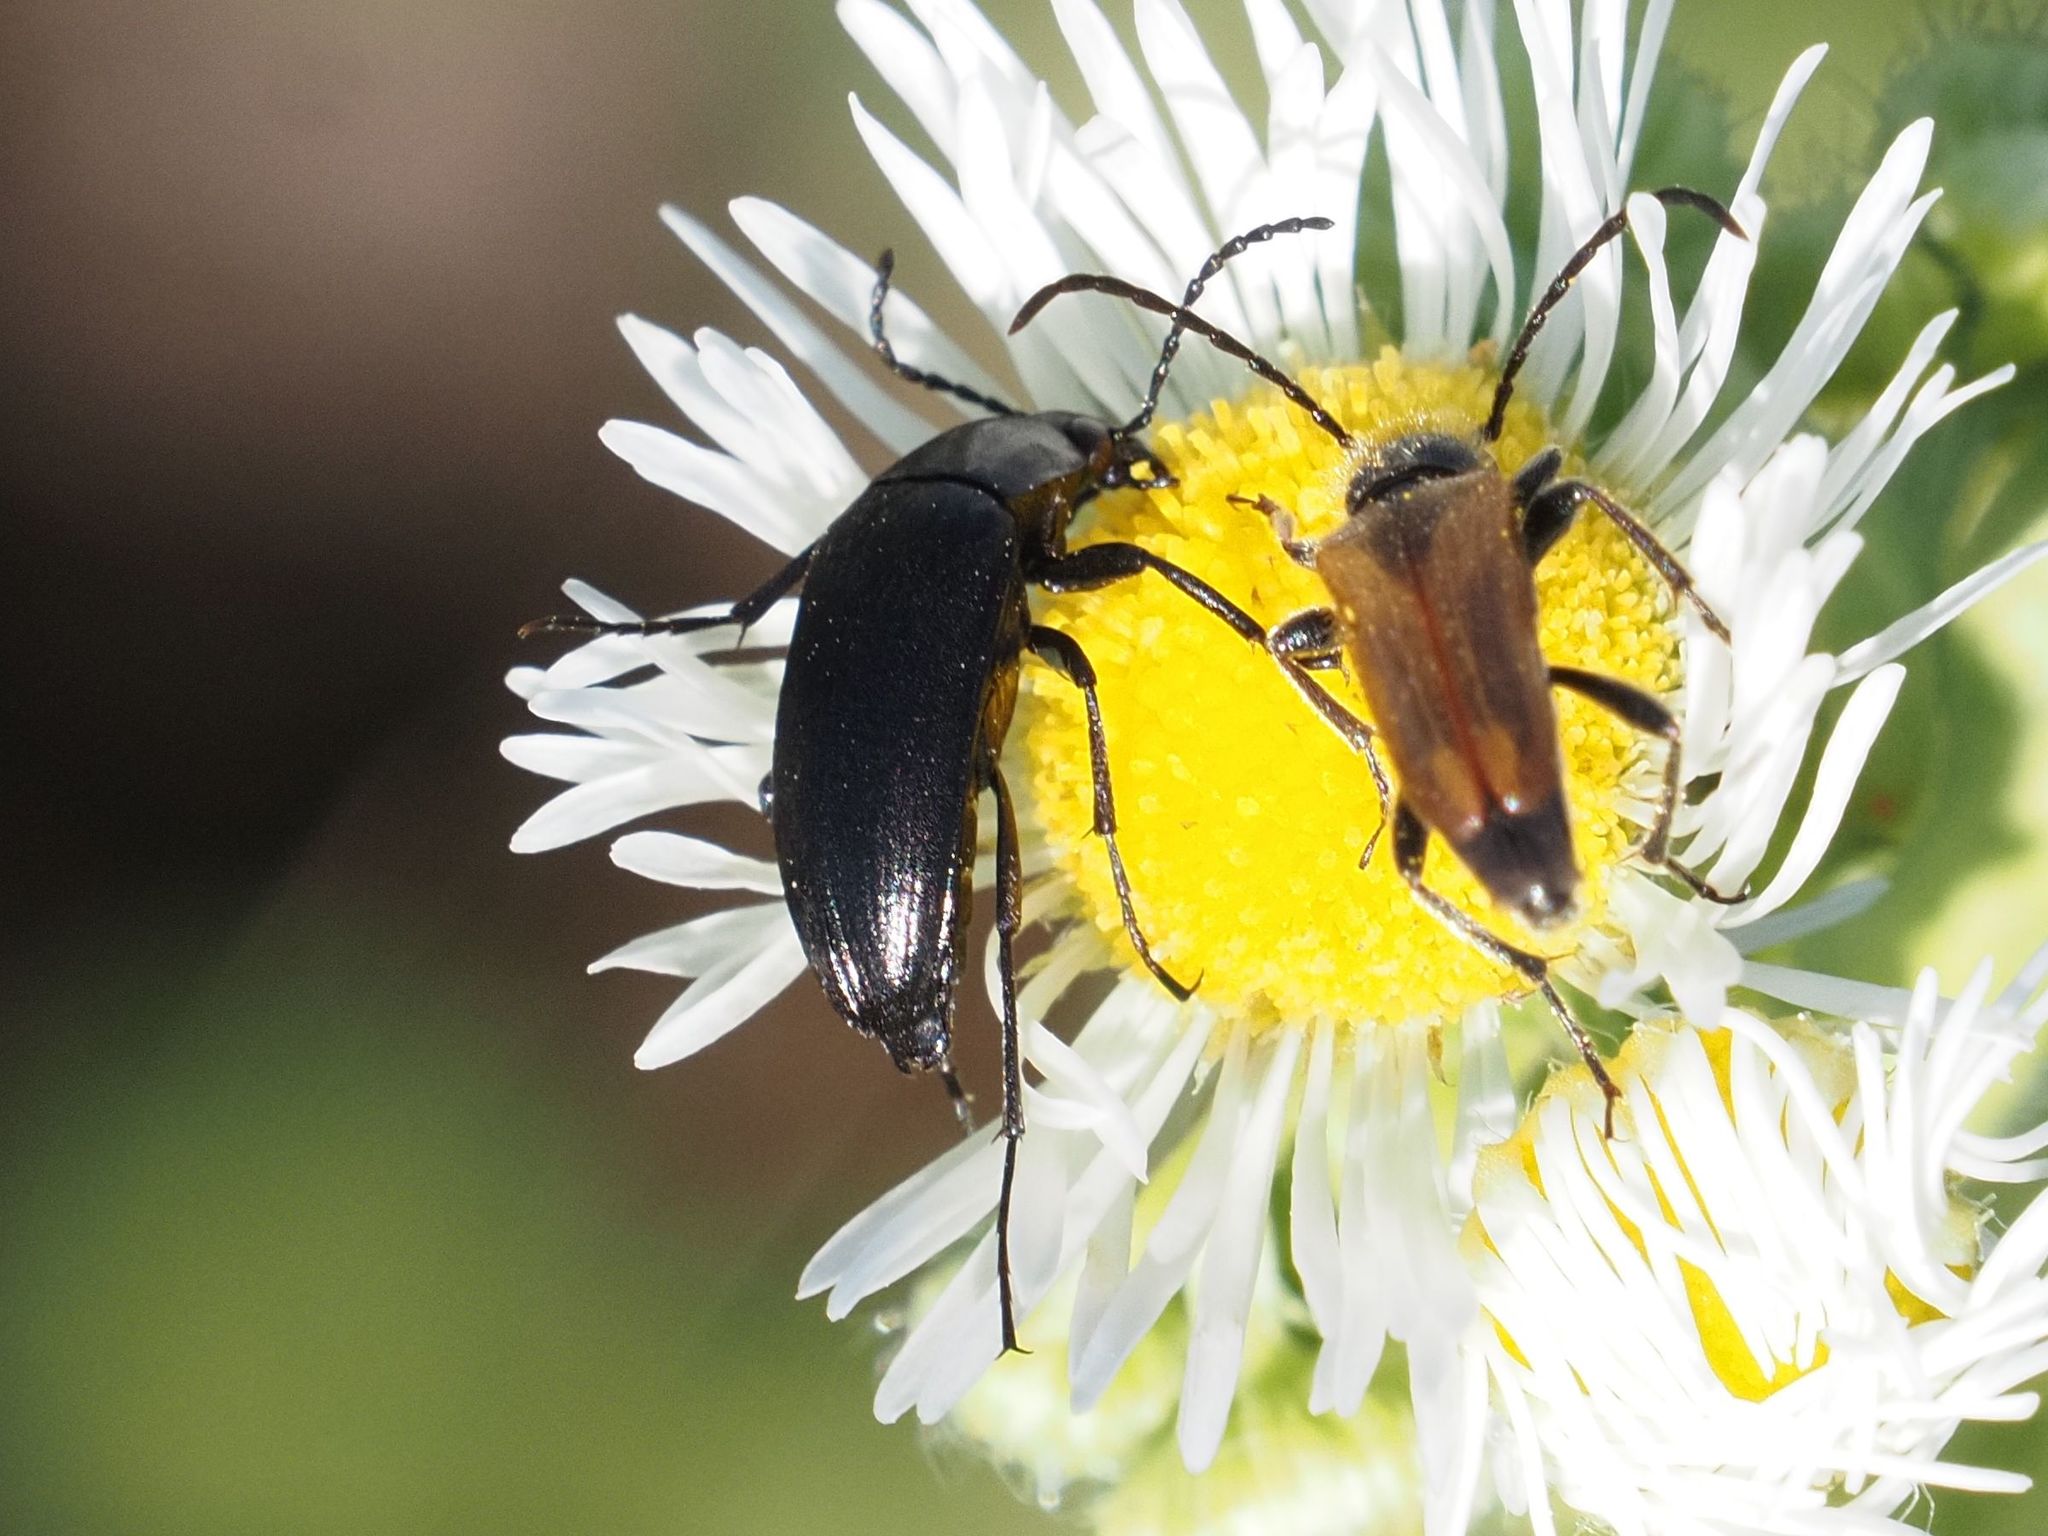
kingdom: Animalia
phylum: Arthropoda
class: Insecta
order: Coleoptera
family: Tenebrionidae
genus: Podonta
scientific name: Podonta nigrita
